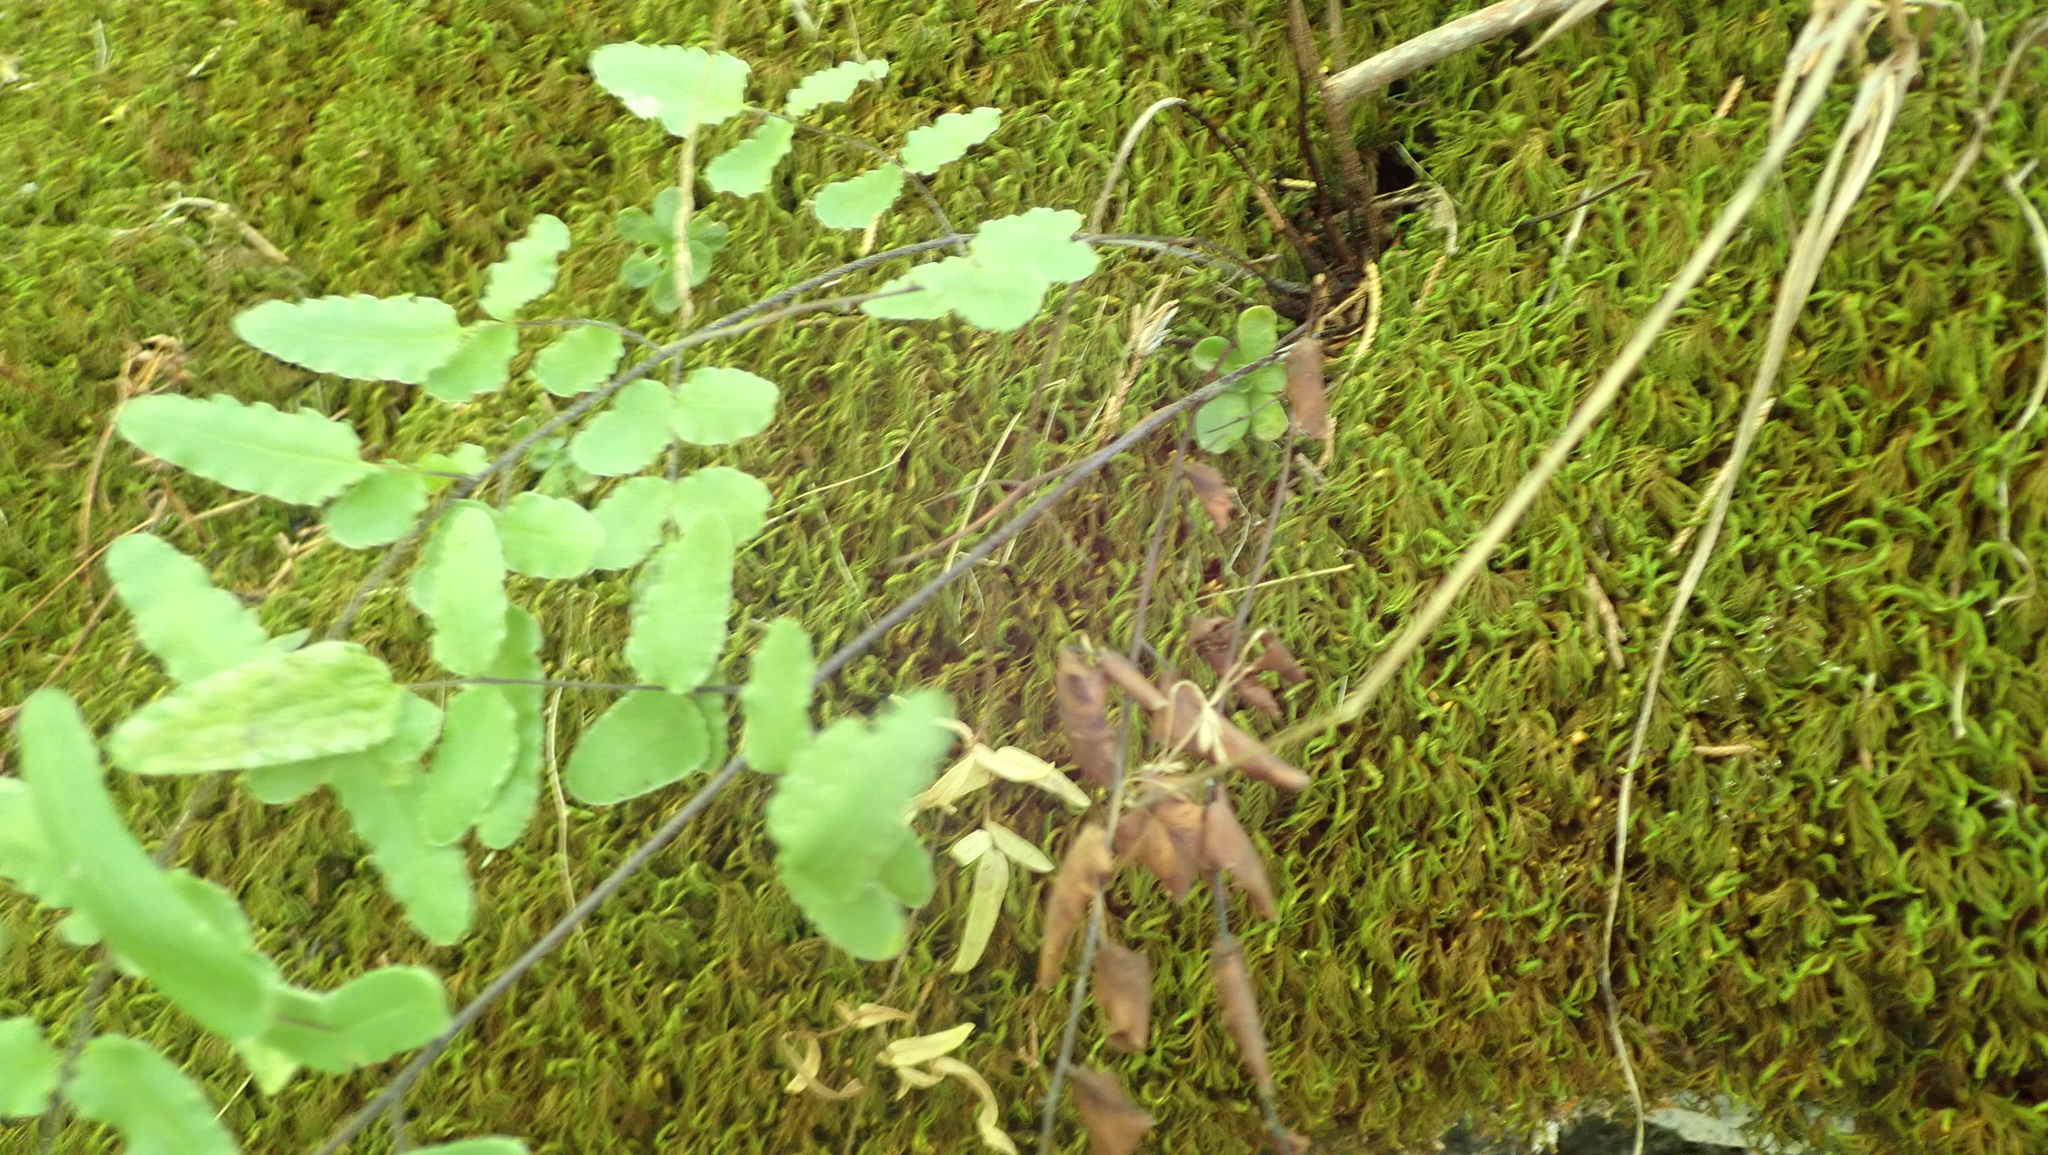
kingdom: Plantae
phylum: Tracheophyta
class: Polypodiopsida
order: Polypodiales
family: Pteridaceae
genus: Pellaea
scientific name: Pellaea atropurpurea
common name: Hairy cliffbrake
